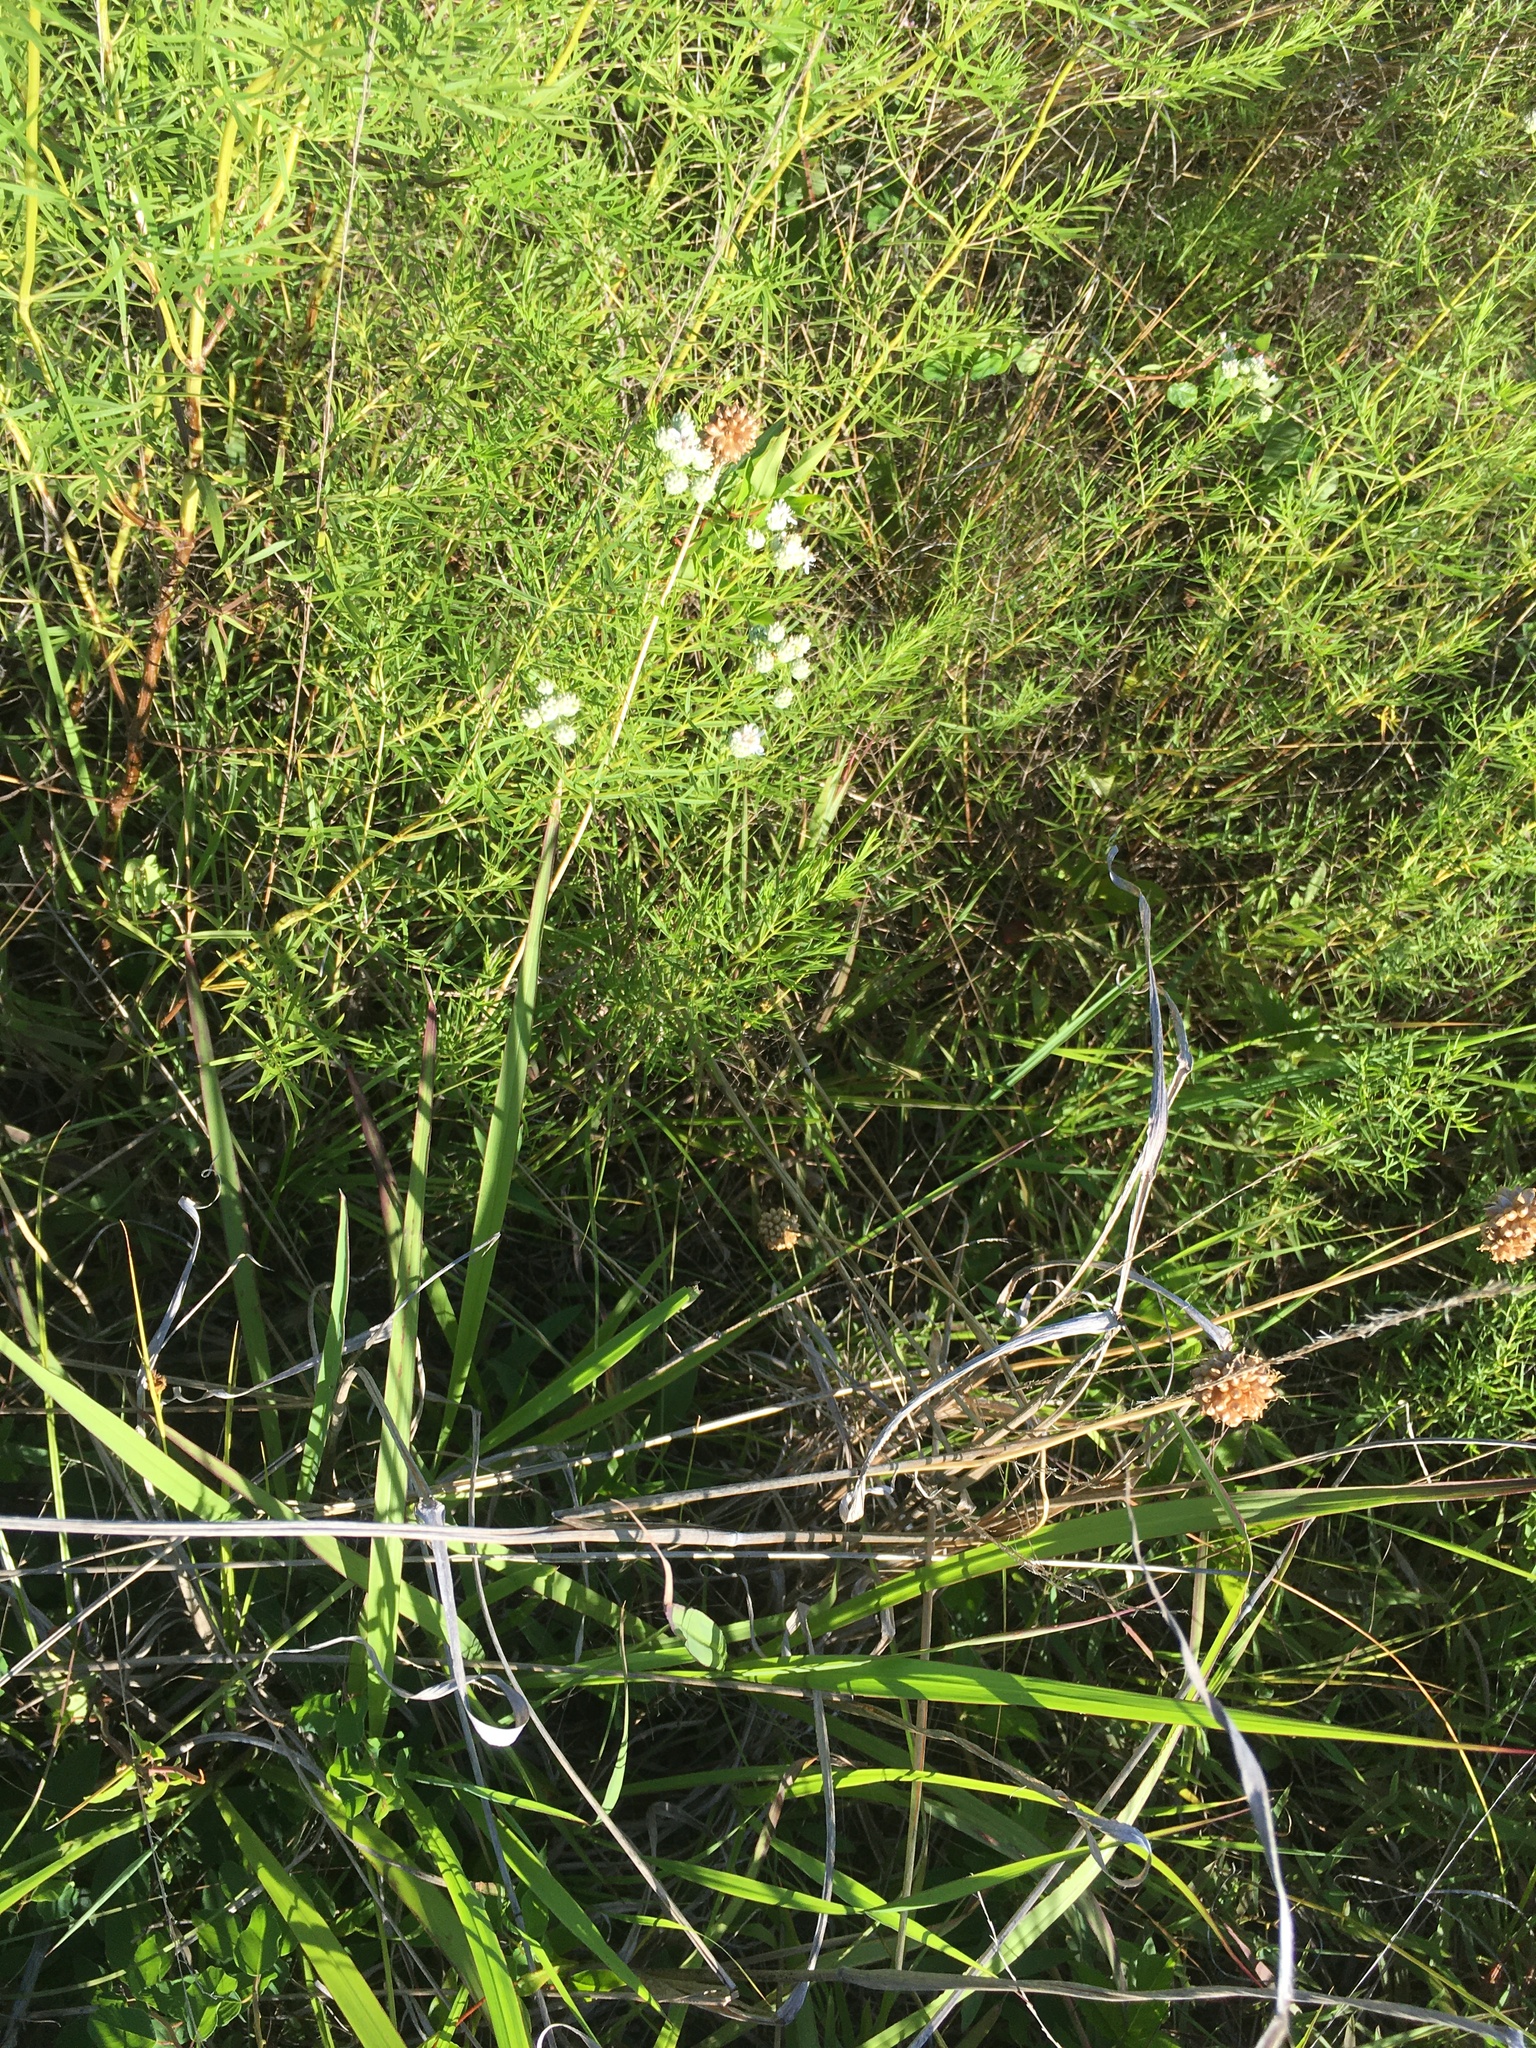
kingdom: Plantae
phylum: Tracheophyta
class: Magnoliopsida
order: Lamiales
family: Lamiaceae
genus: Pycnanthemum
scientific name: Pycnanthemum tenuifolium
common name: Narrow-leaf mountain-mint
